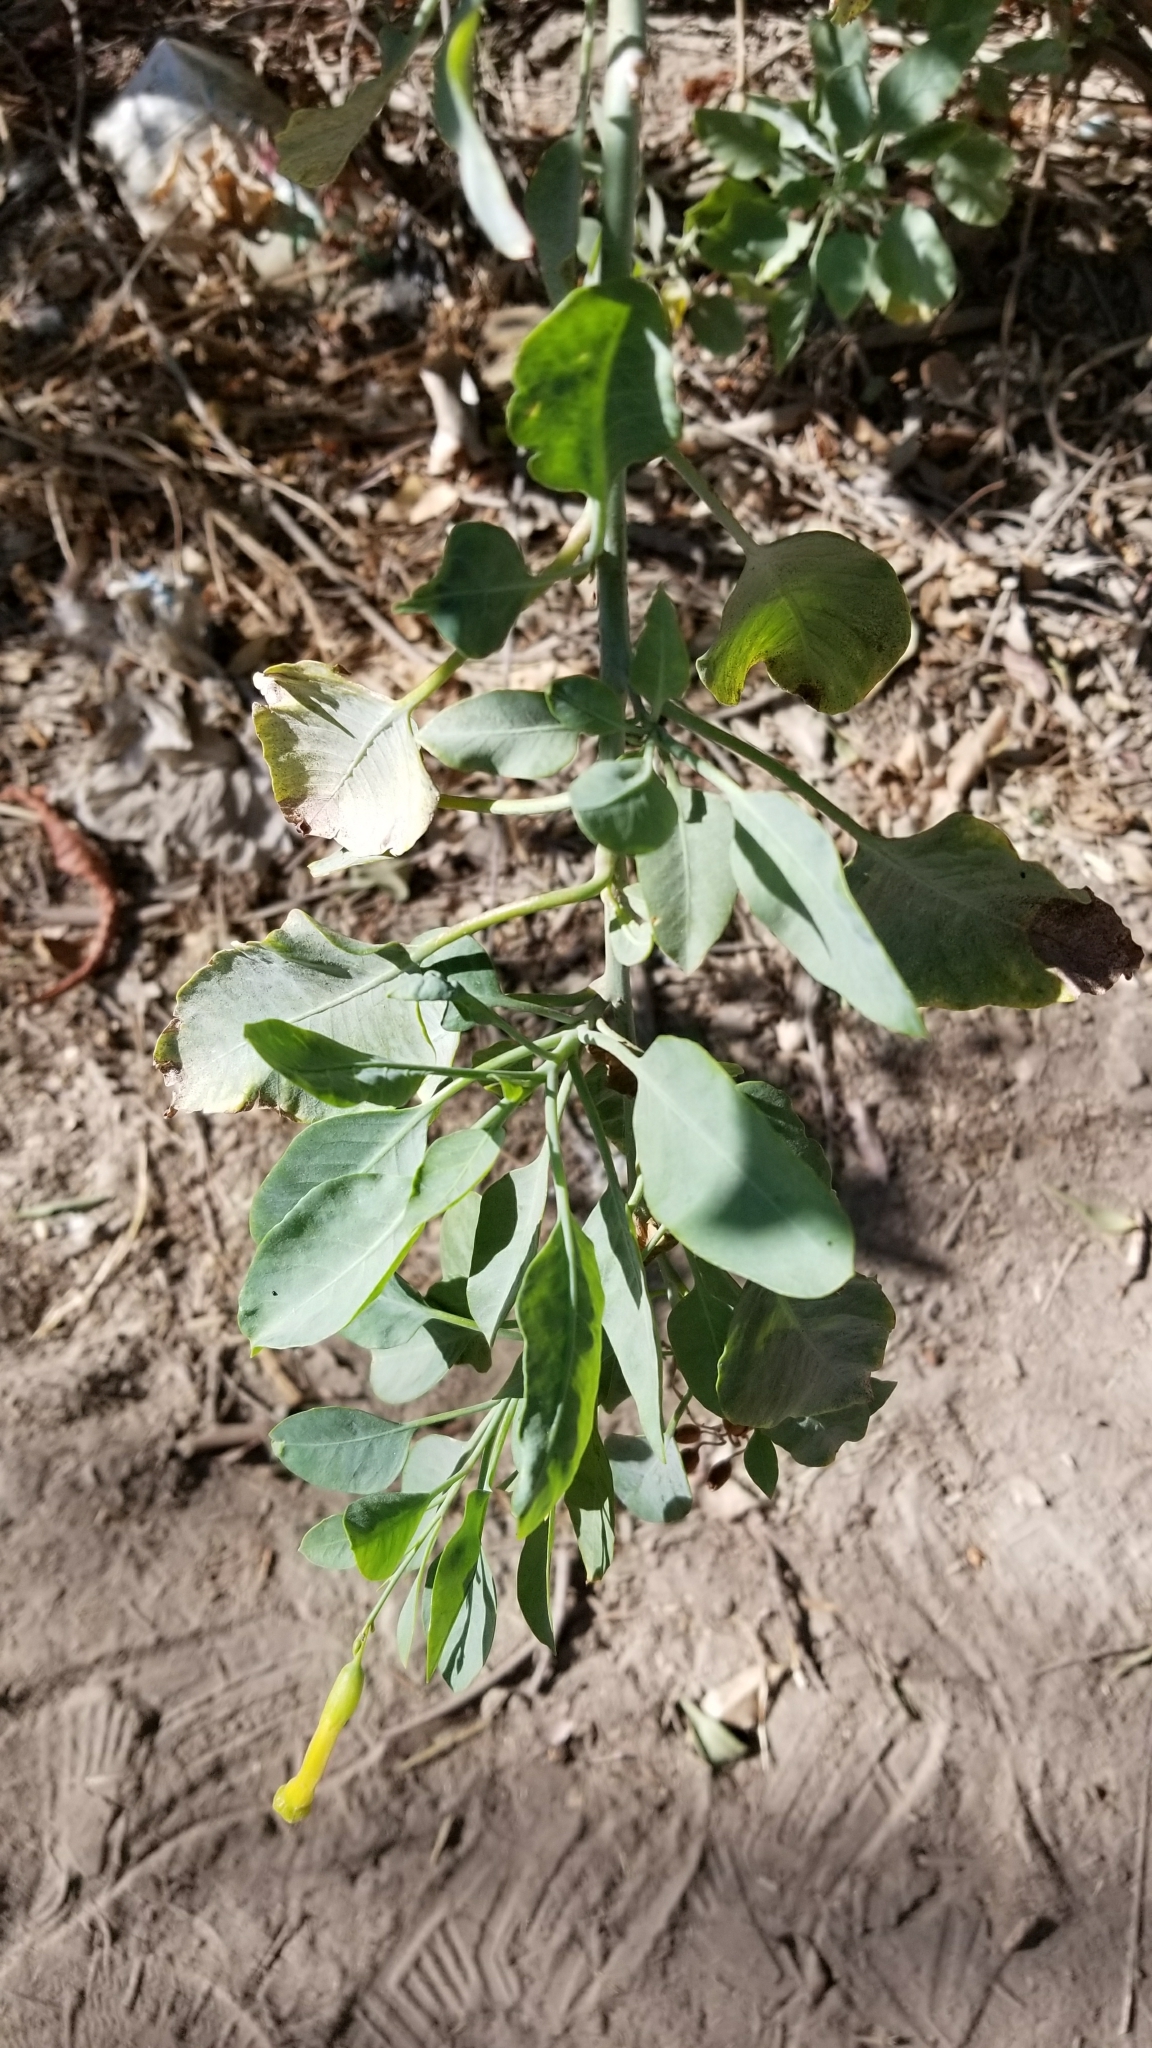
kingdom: Plantae
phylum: Tracheophyta
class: Magnoliopsida
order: Solanales
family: Solanaceae
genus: Nicotiana
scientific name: Nicotiana glauca
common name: Tree tobacco
